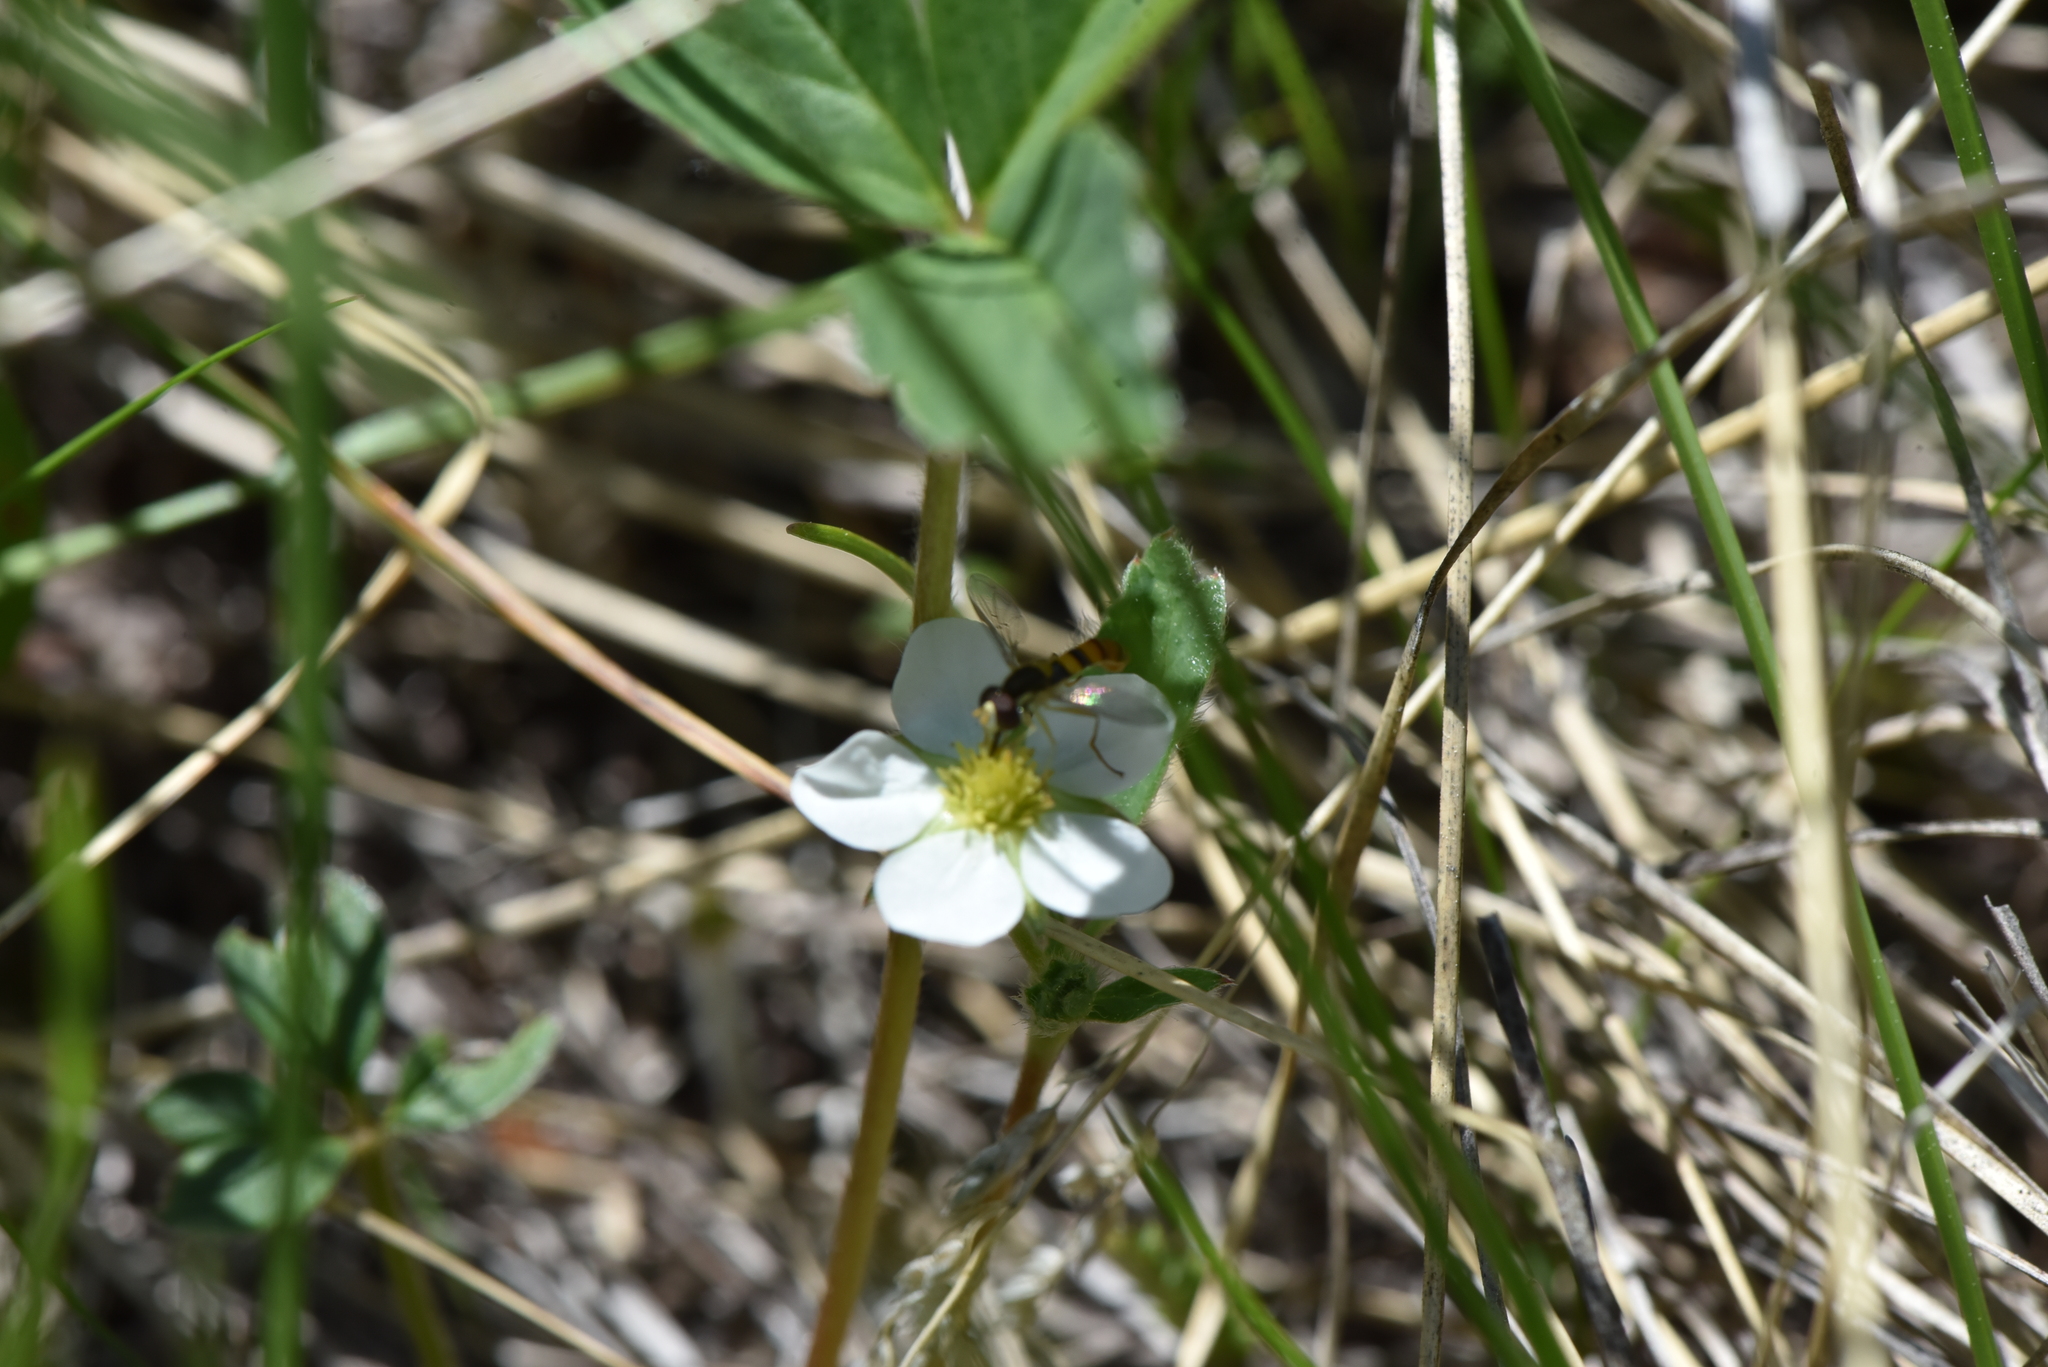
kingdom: Plantae
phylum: Tracheophyta
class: Magnoliopsida
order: Rosales
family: Rosaceae
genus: Fragaria
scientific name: Fragaria virginiana
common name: Thickleaved wild strawberry
